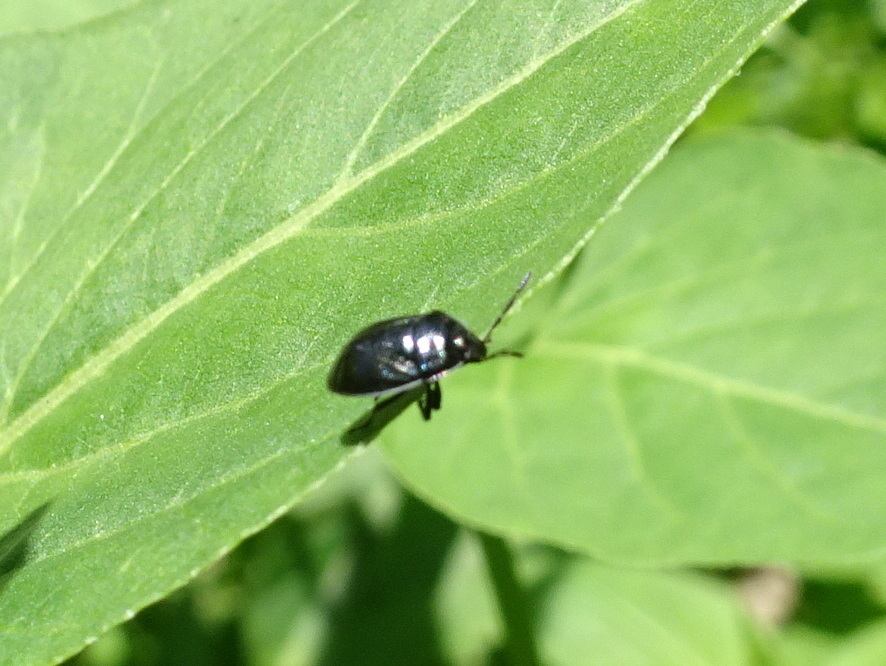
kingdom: Animalia
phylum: Arthropoda
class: Insecta
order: Hemiptera
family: Cydnidae
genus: Sehirus
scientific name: Sehirus cinctus
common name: White-margined burrower bug
